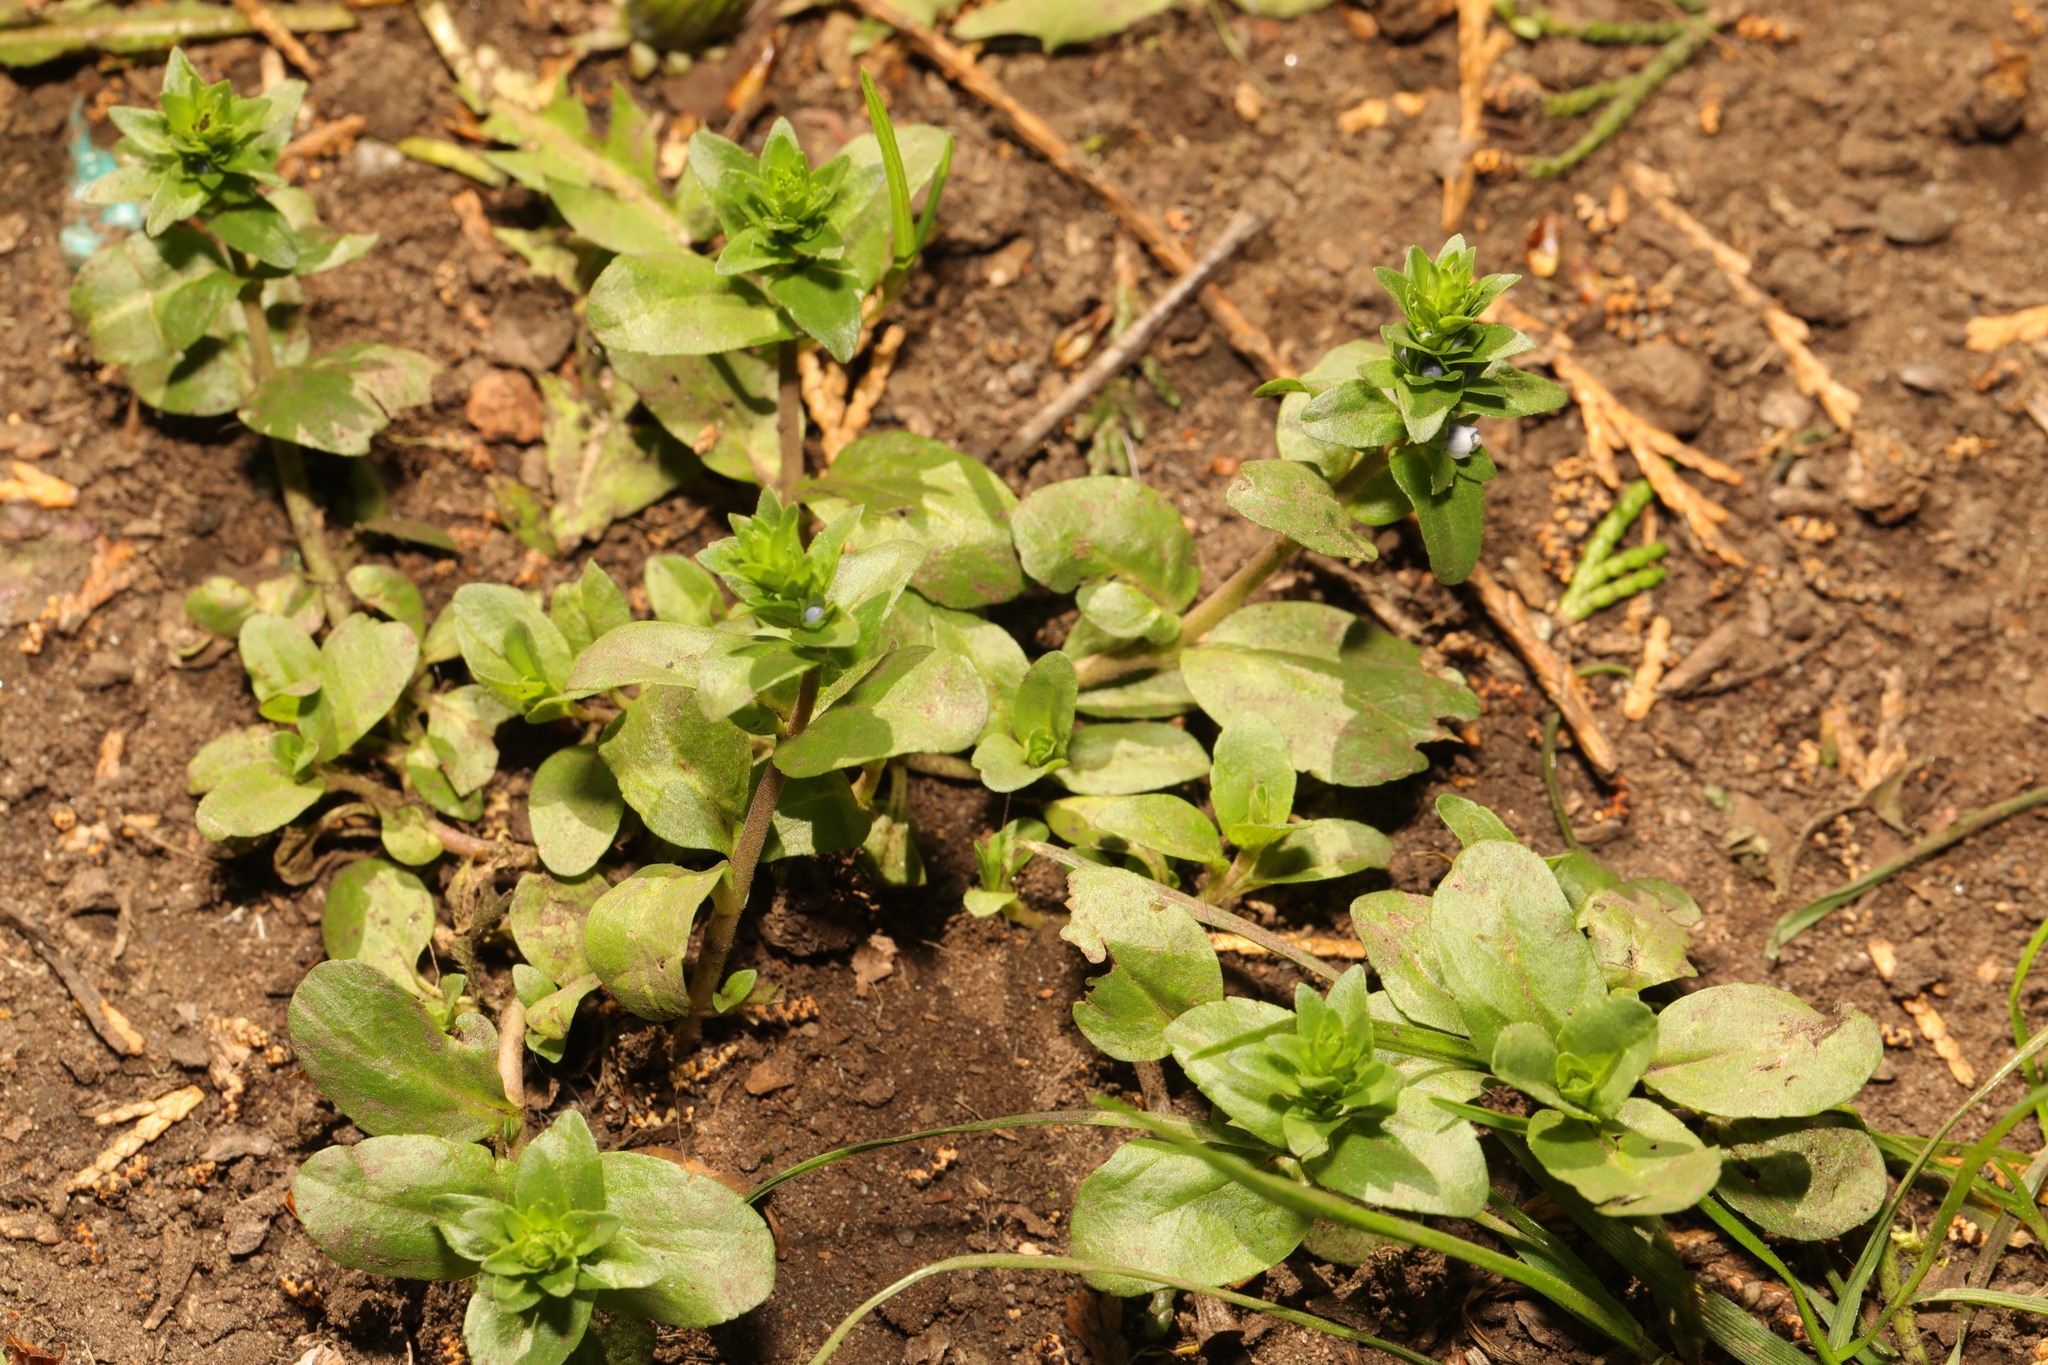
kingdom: Plantae
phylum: Tracheophyta
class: Magnoliopsida
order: Lamiales
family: Plantaginaceae
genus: Veronica
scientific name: Veronica serpyllifolia
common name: Thyme-leaved speedwell
